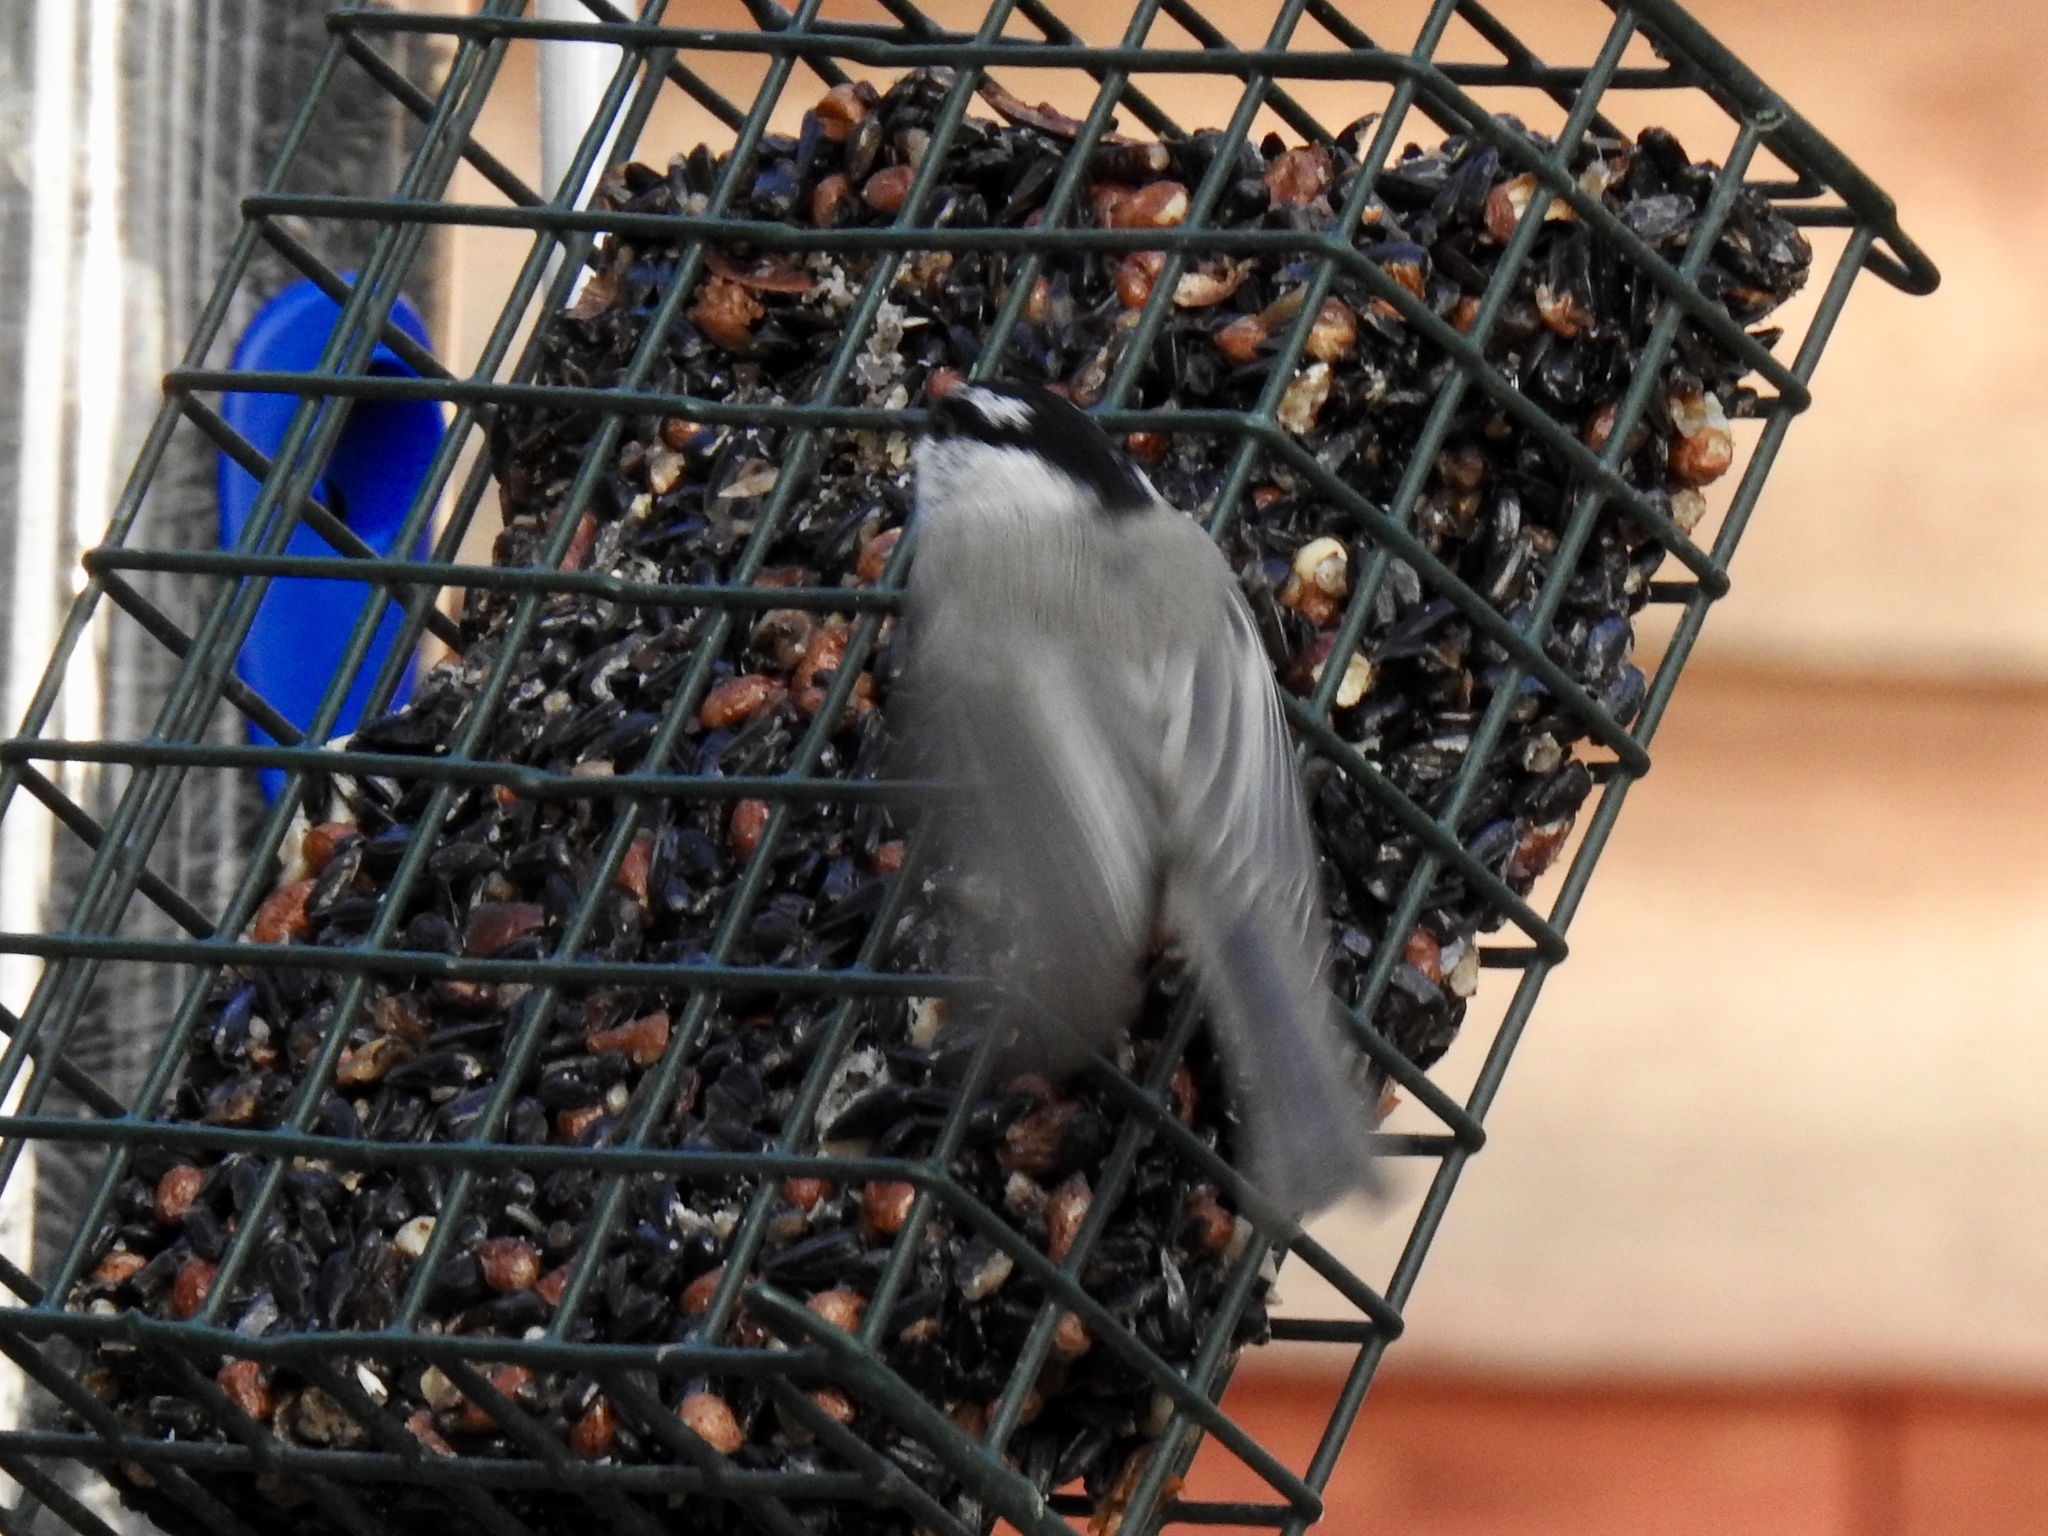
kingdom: Animalia
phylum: Chordata
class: Aves
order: Passeriformes
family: Paridae
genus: Poecile
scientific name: Poecile gambeli
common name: Mountain chickadee
